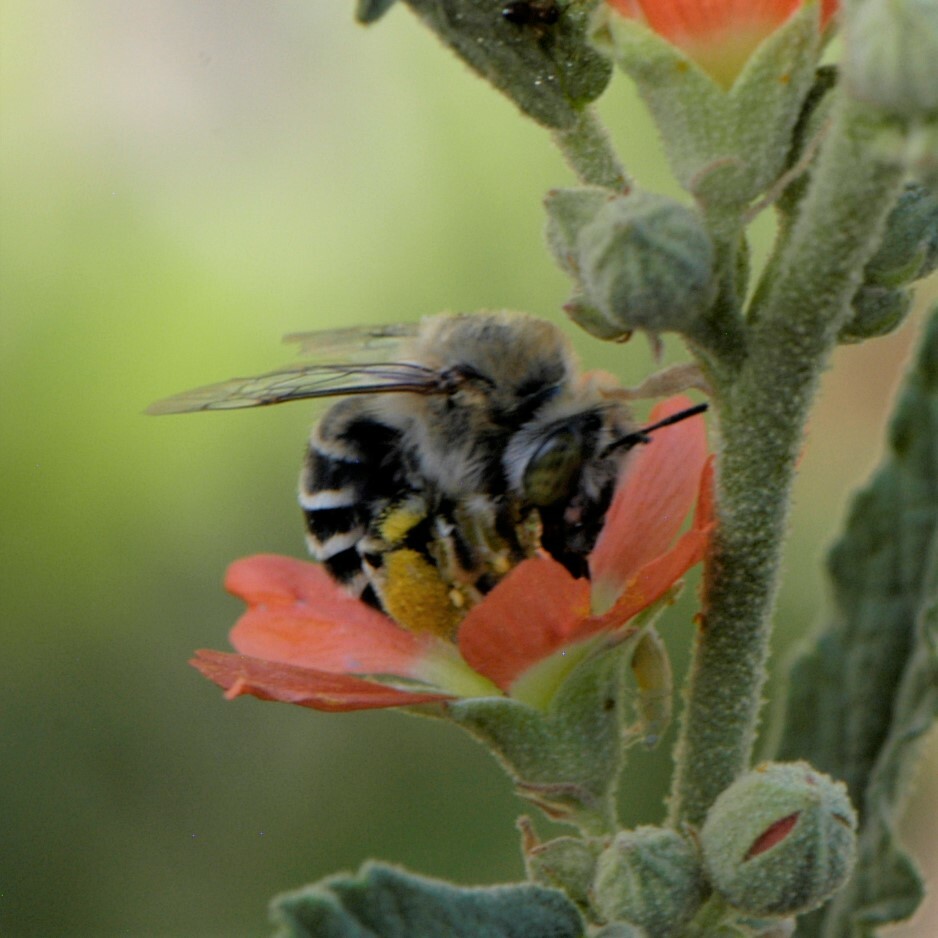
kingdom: Animalia
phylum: Arthropoda
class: Insecta
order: Hymenoptera
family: Apidae
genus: Anthophora
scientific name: Anthophora californica
